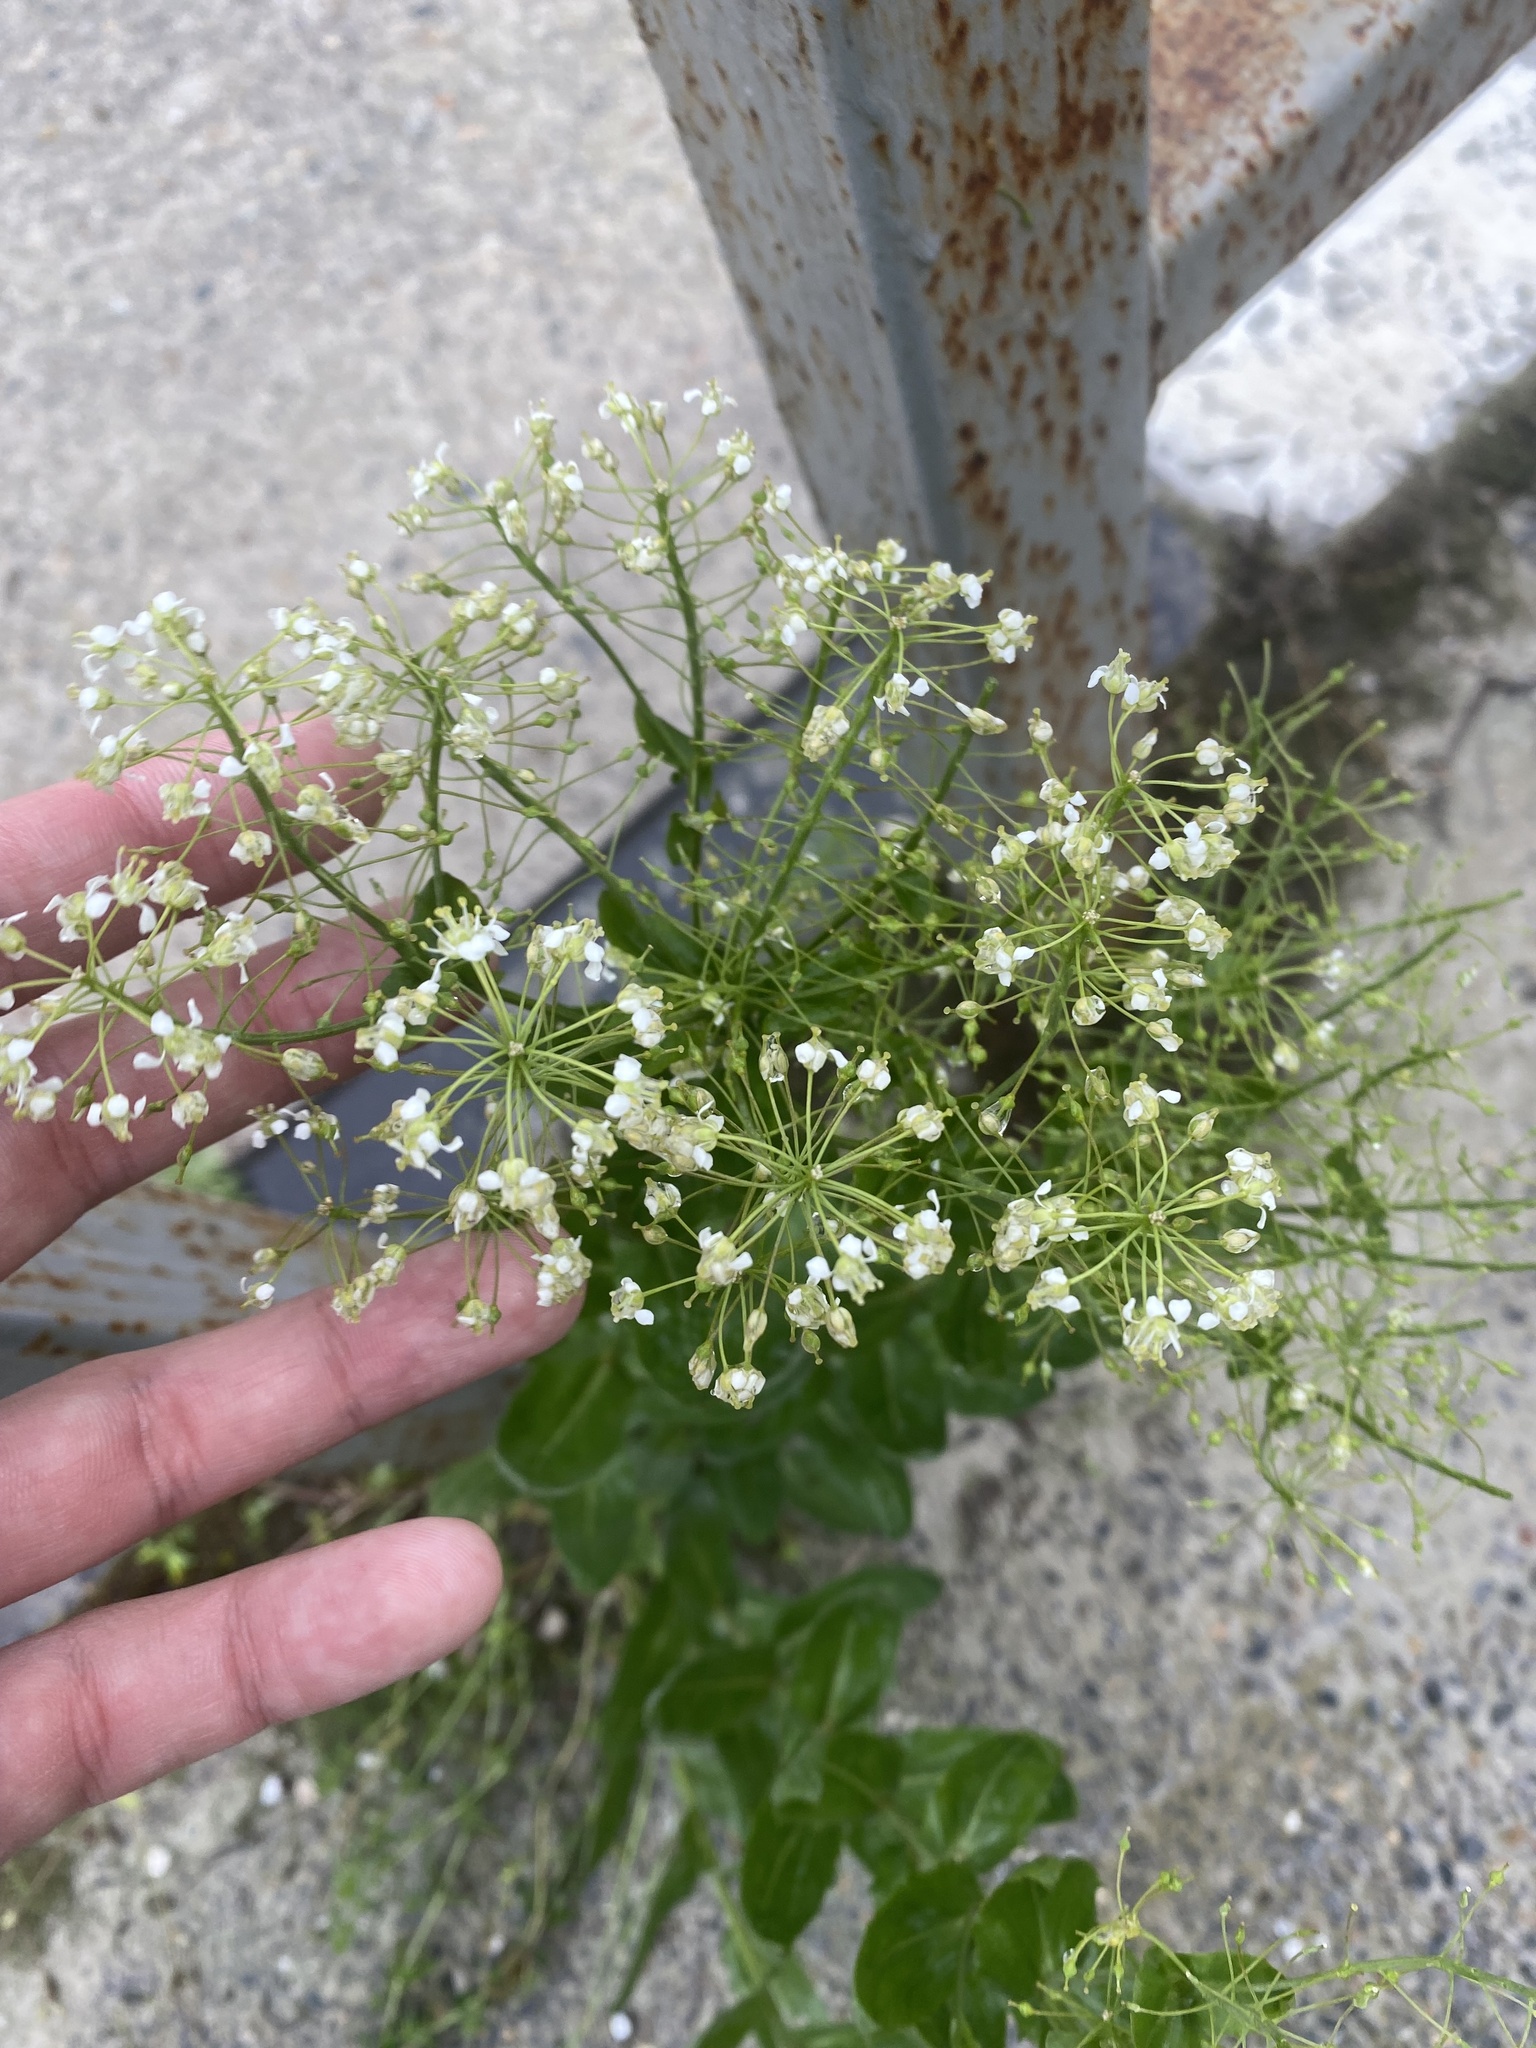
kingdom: Plantae
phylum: Tracheophyta
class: Magnoliopsida
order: Brassicales
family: Brassicaceae
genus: Lepidium
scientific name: Lepidium draba
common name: Hoary cress
